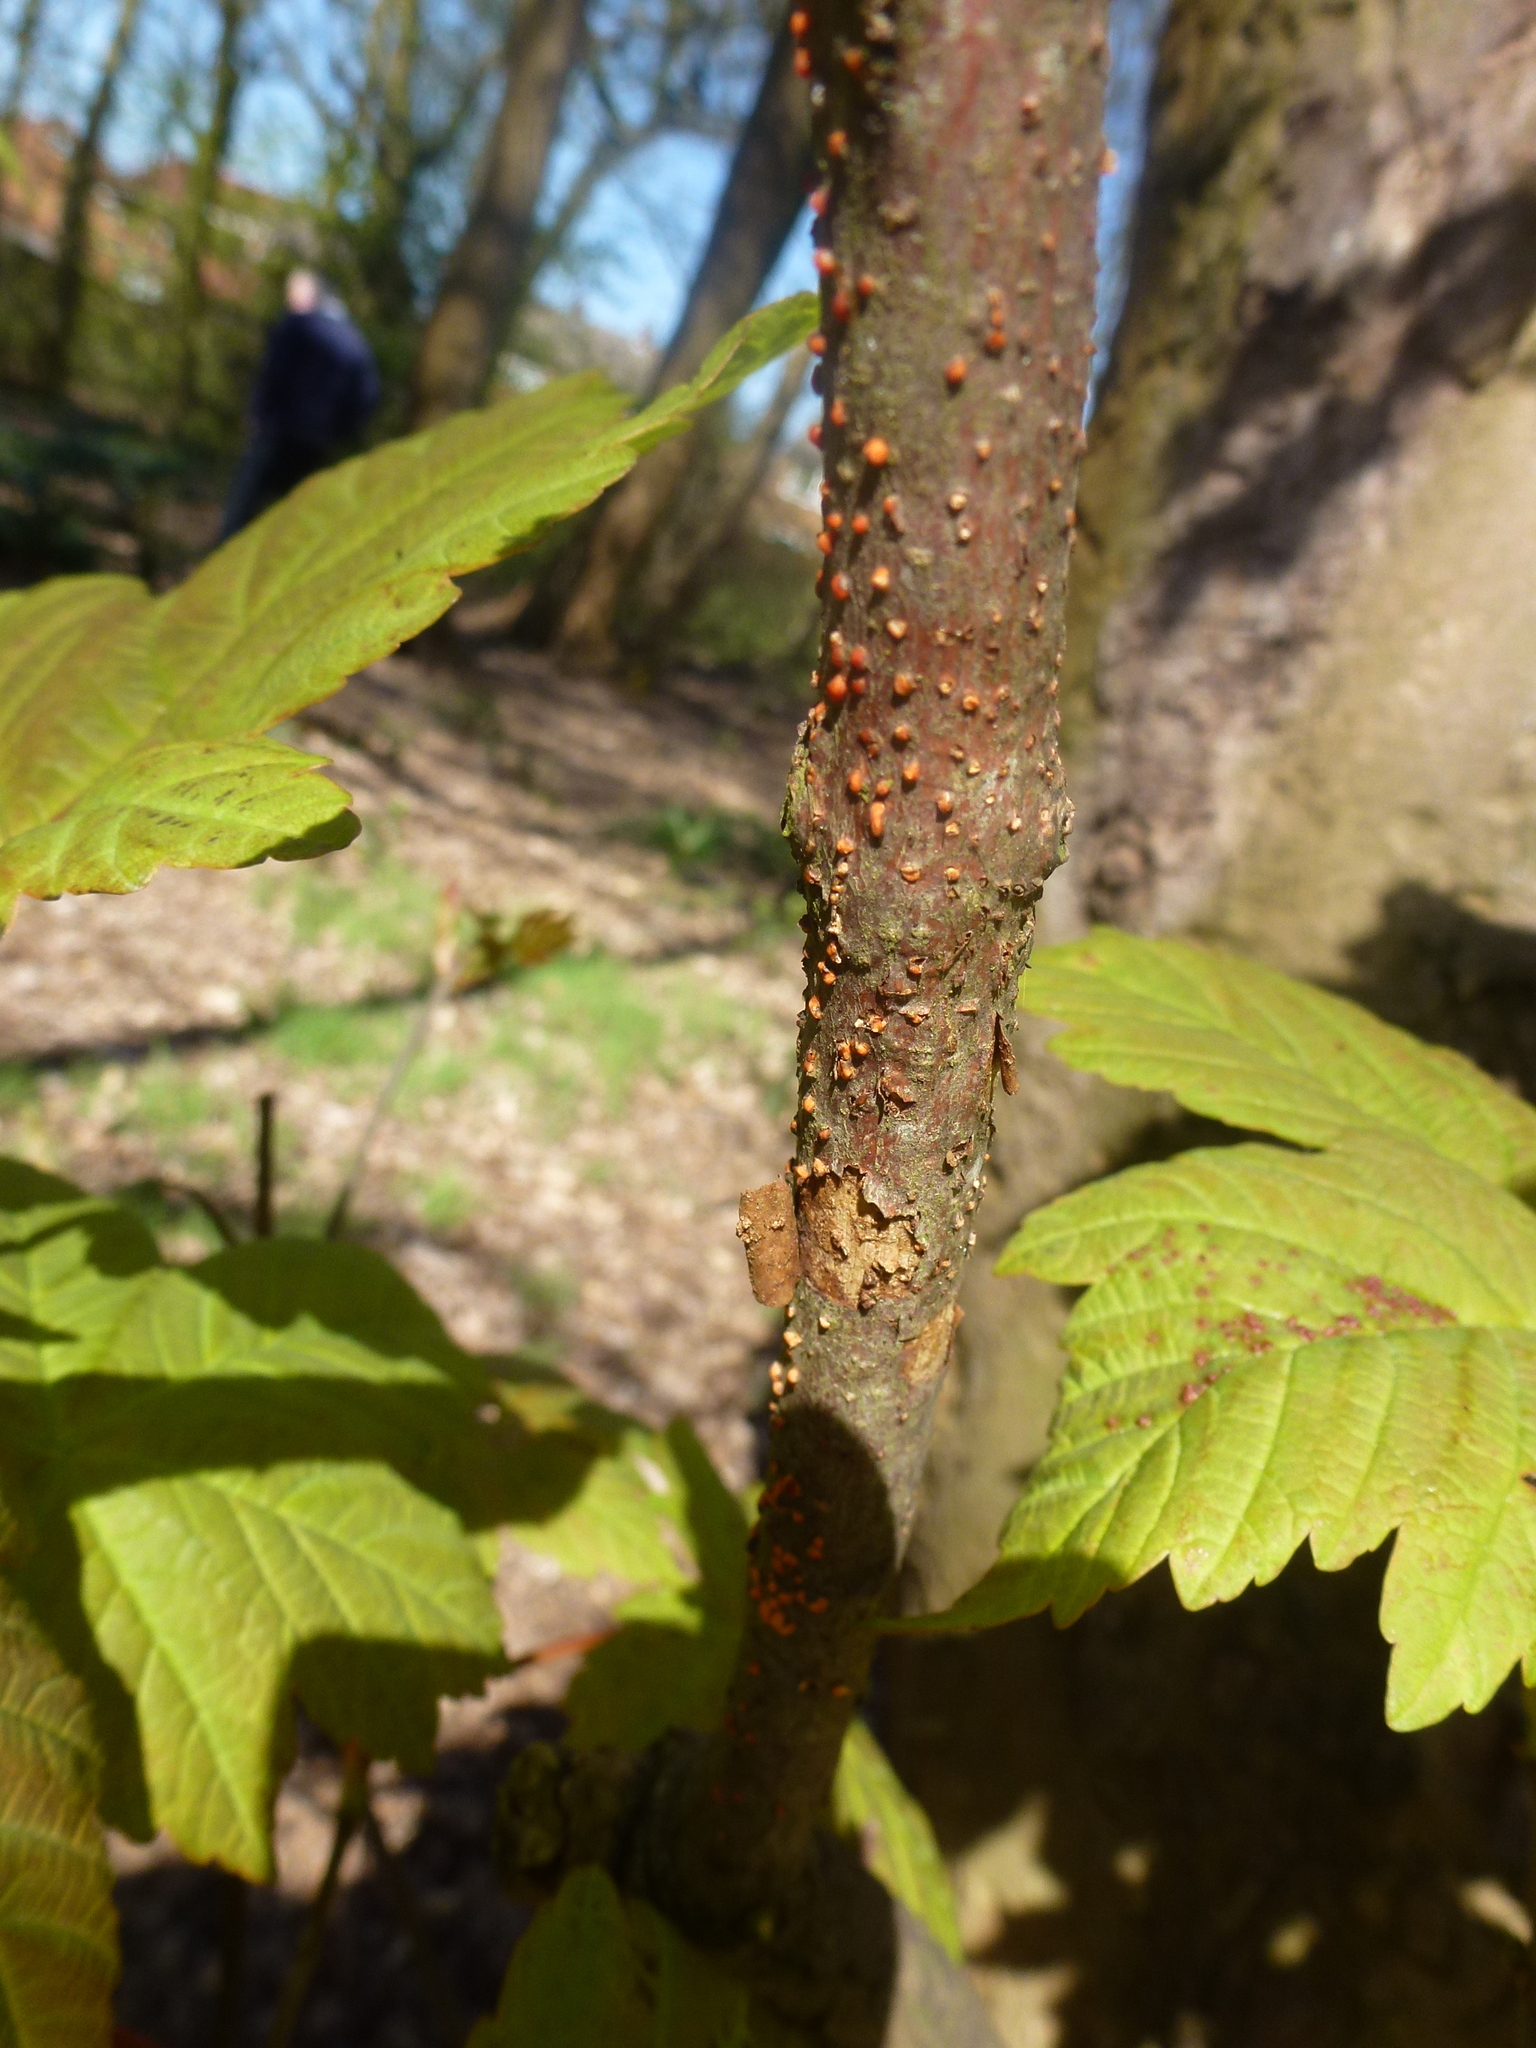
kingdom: Fungi
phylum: Ascomycota
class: Sordariomycetes
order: Hypocreales
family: Nectriaceae
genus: Nectria
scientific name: Nectria cinnabarina
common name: Coral spot
